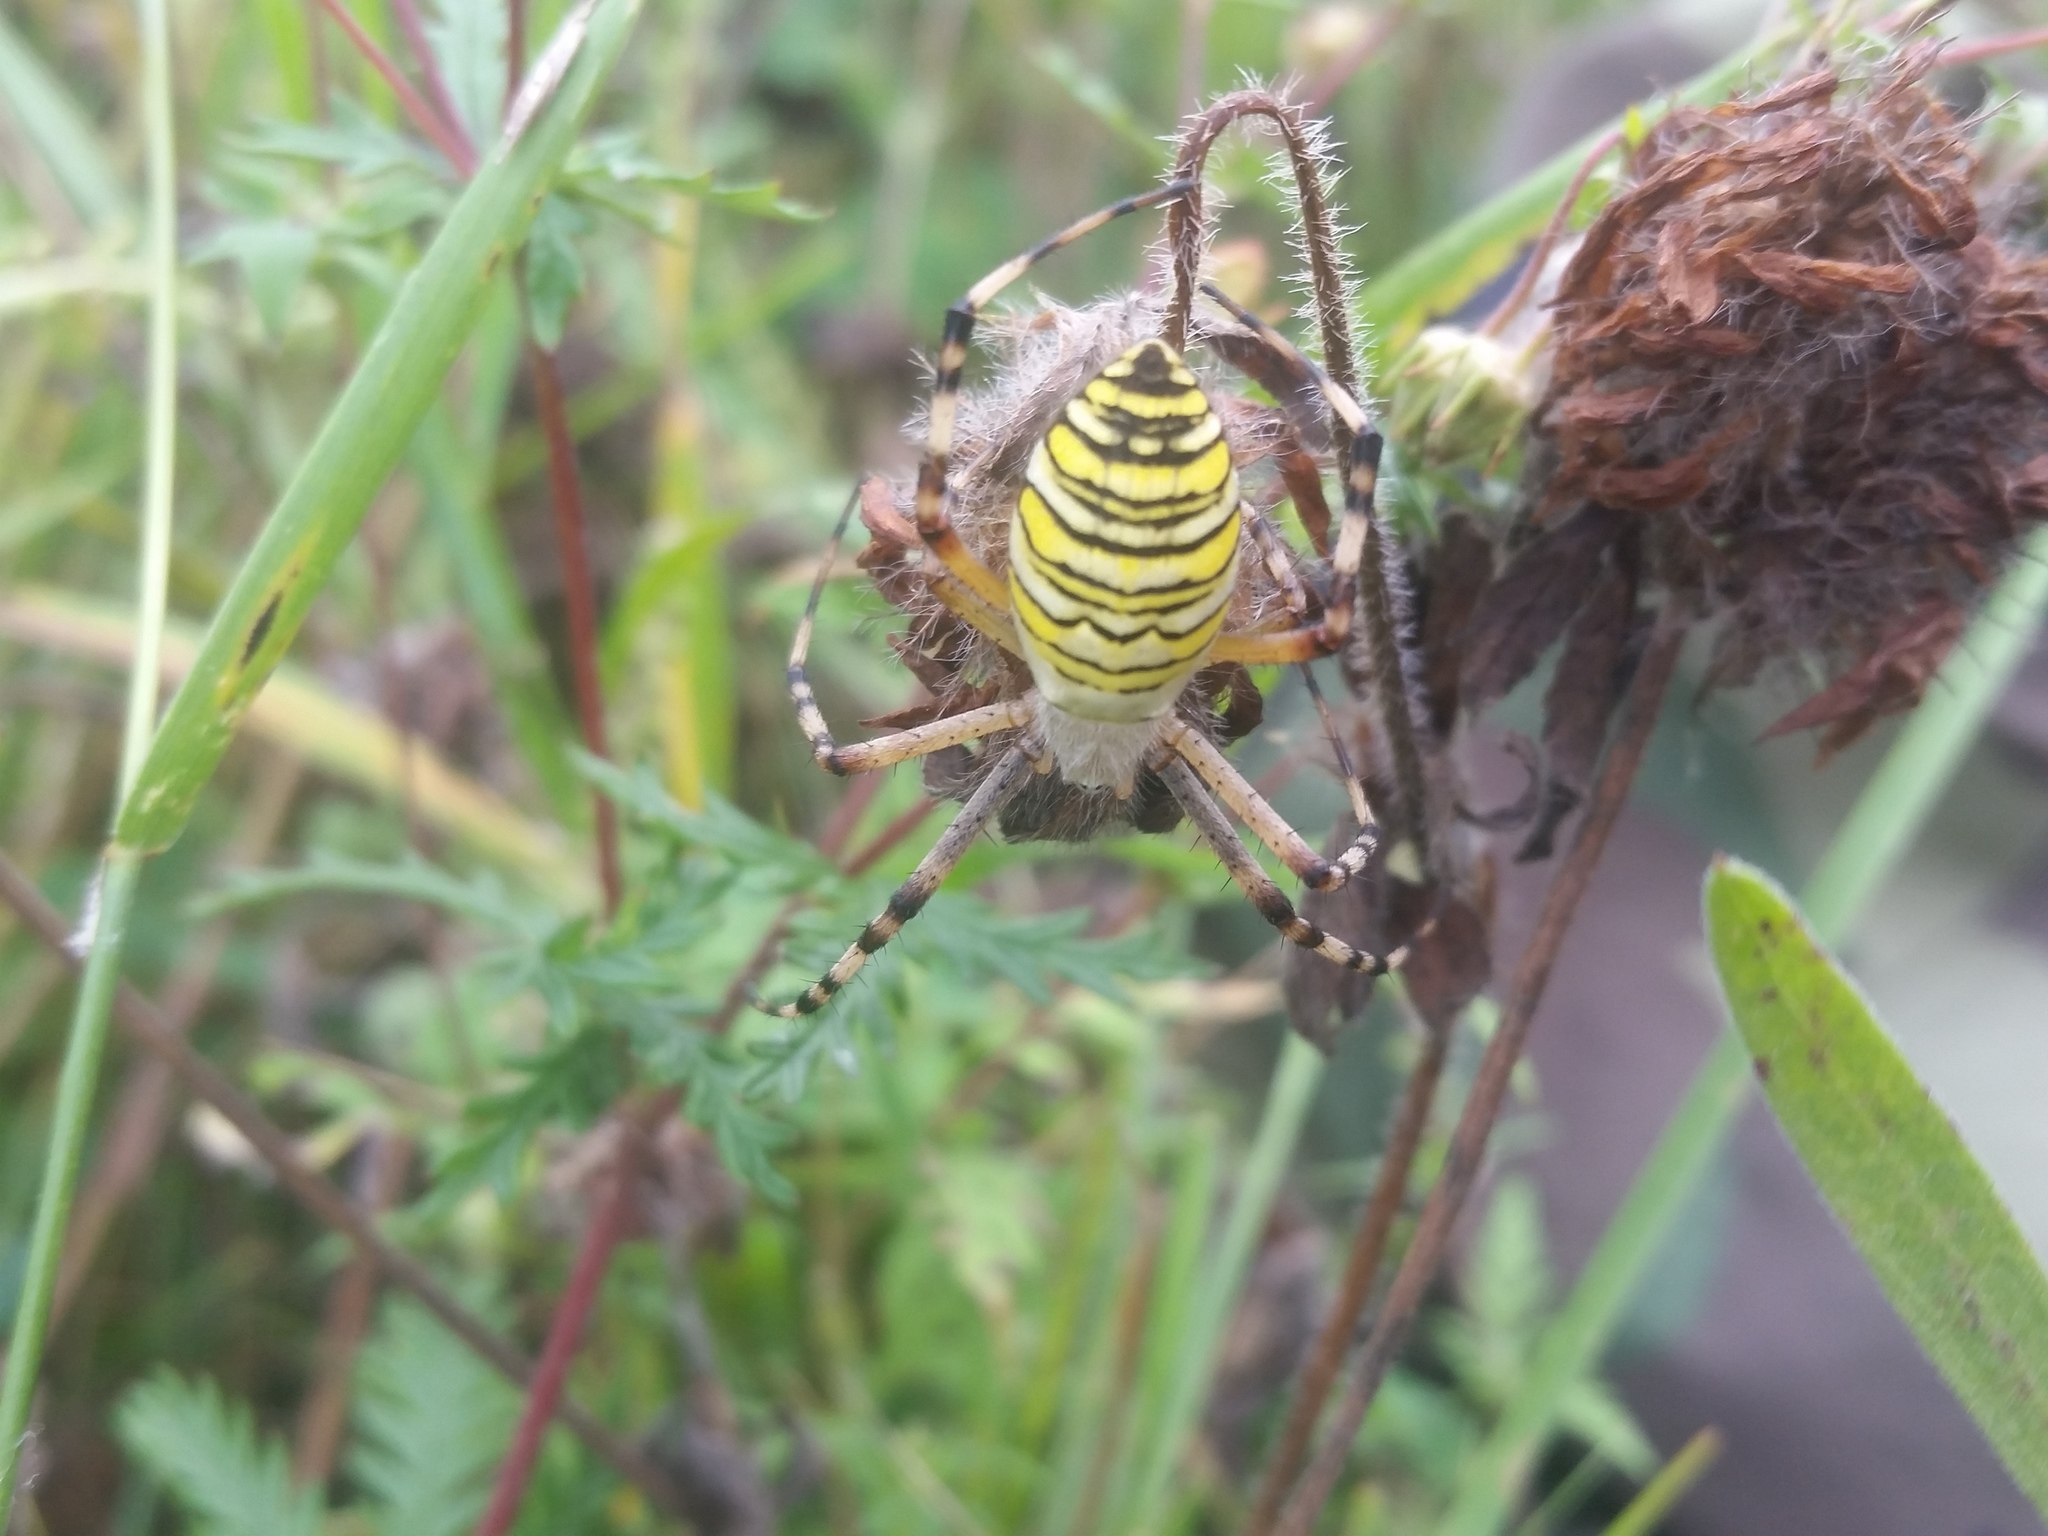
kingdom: Animalia
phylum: Arthropoda
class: Arachnida
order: Araneae
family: Araneidae
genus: Argiope
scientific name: Argiope bruennichi
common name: Wasp spider
